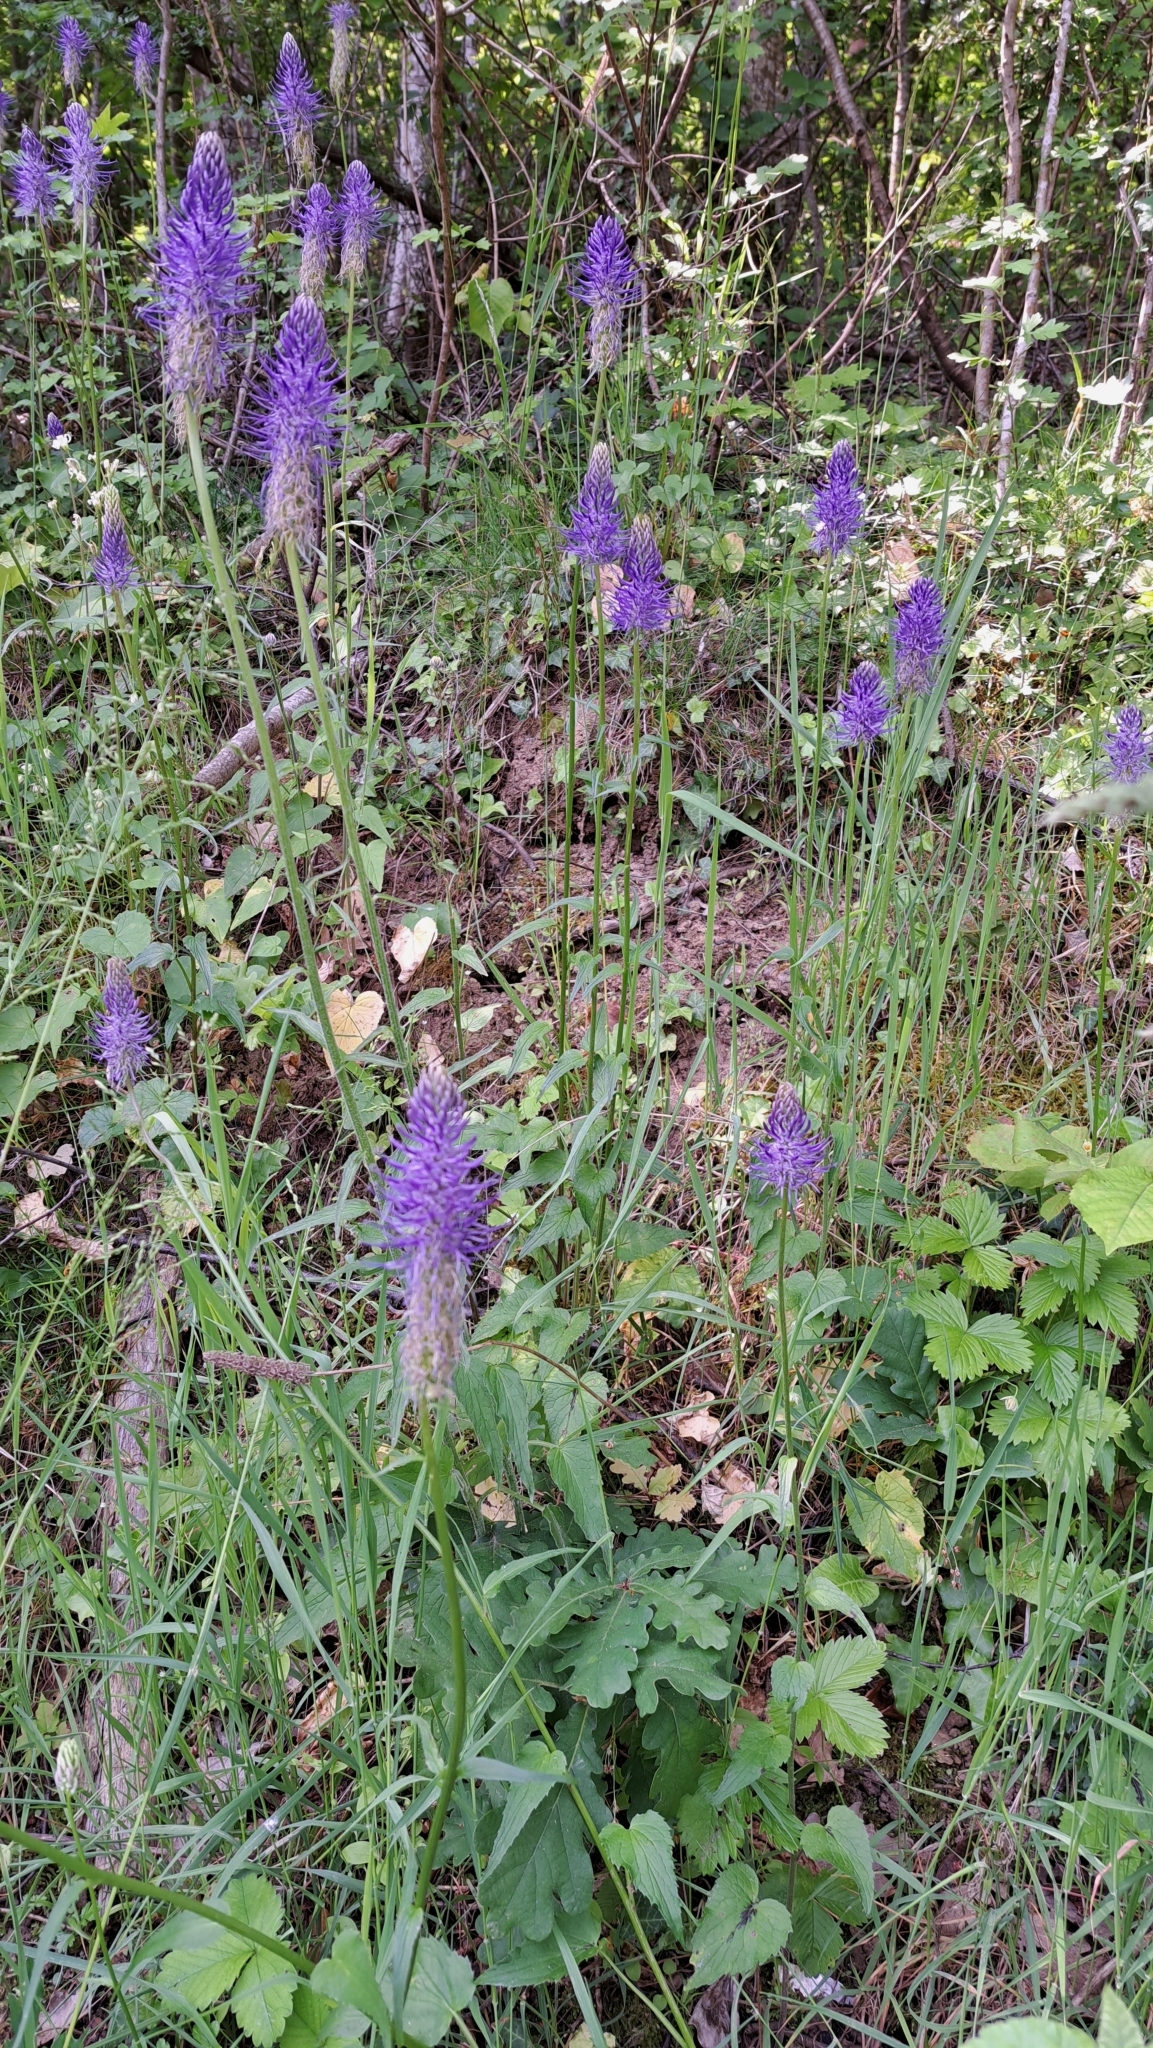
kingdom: Plantae
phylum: Tracheophyta
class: Magnoliopsida
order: Asterales
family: Campanulaceae
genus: Phyteuma
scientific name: Phyteuma spicatum
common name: Spiked rampion
